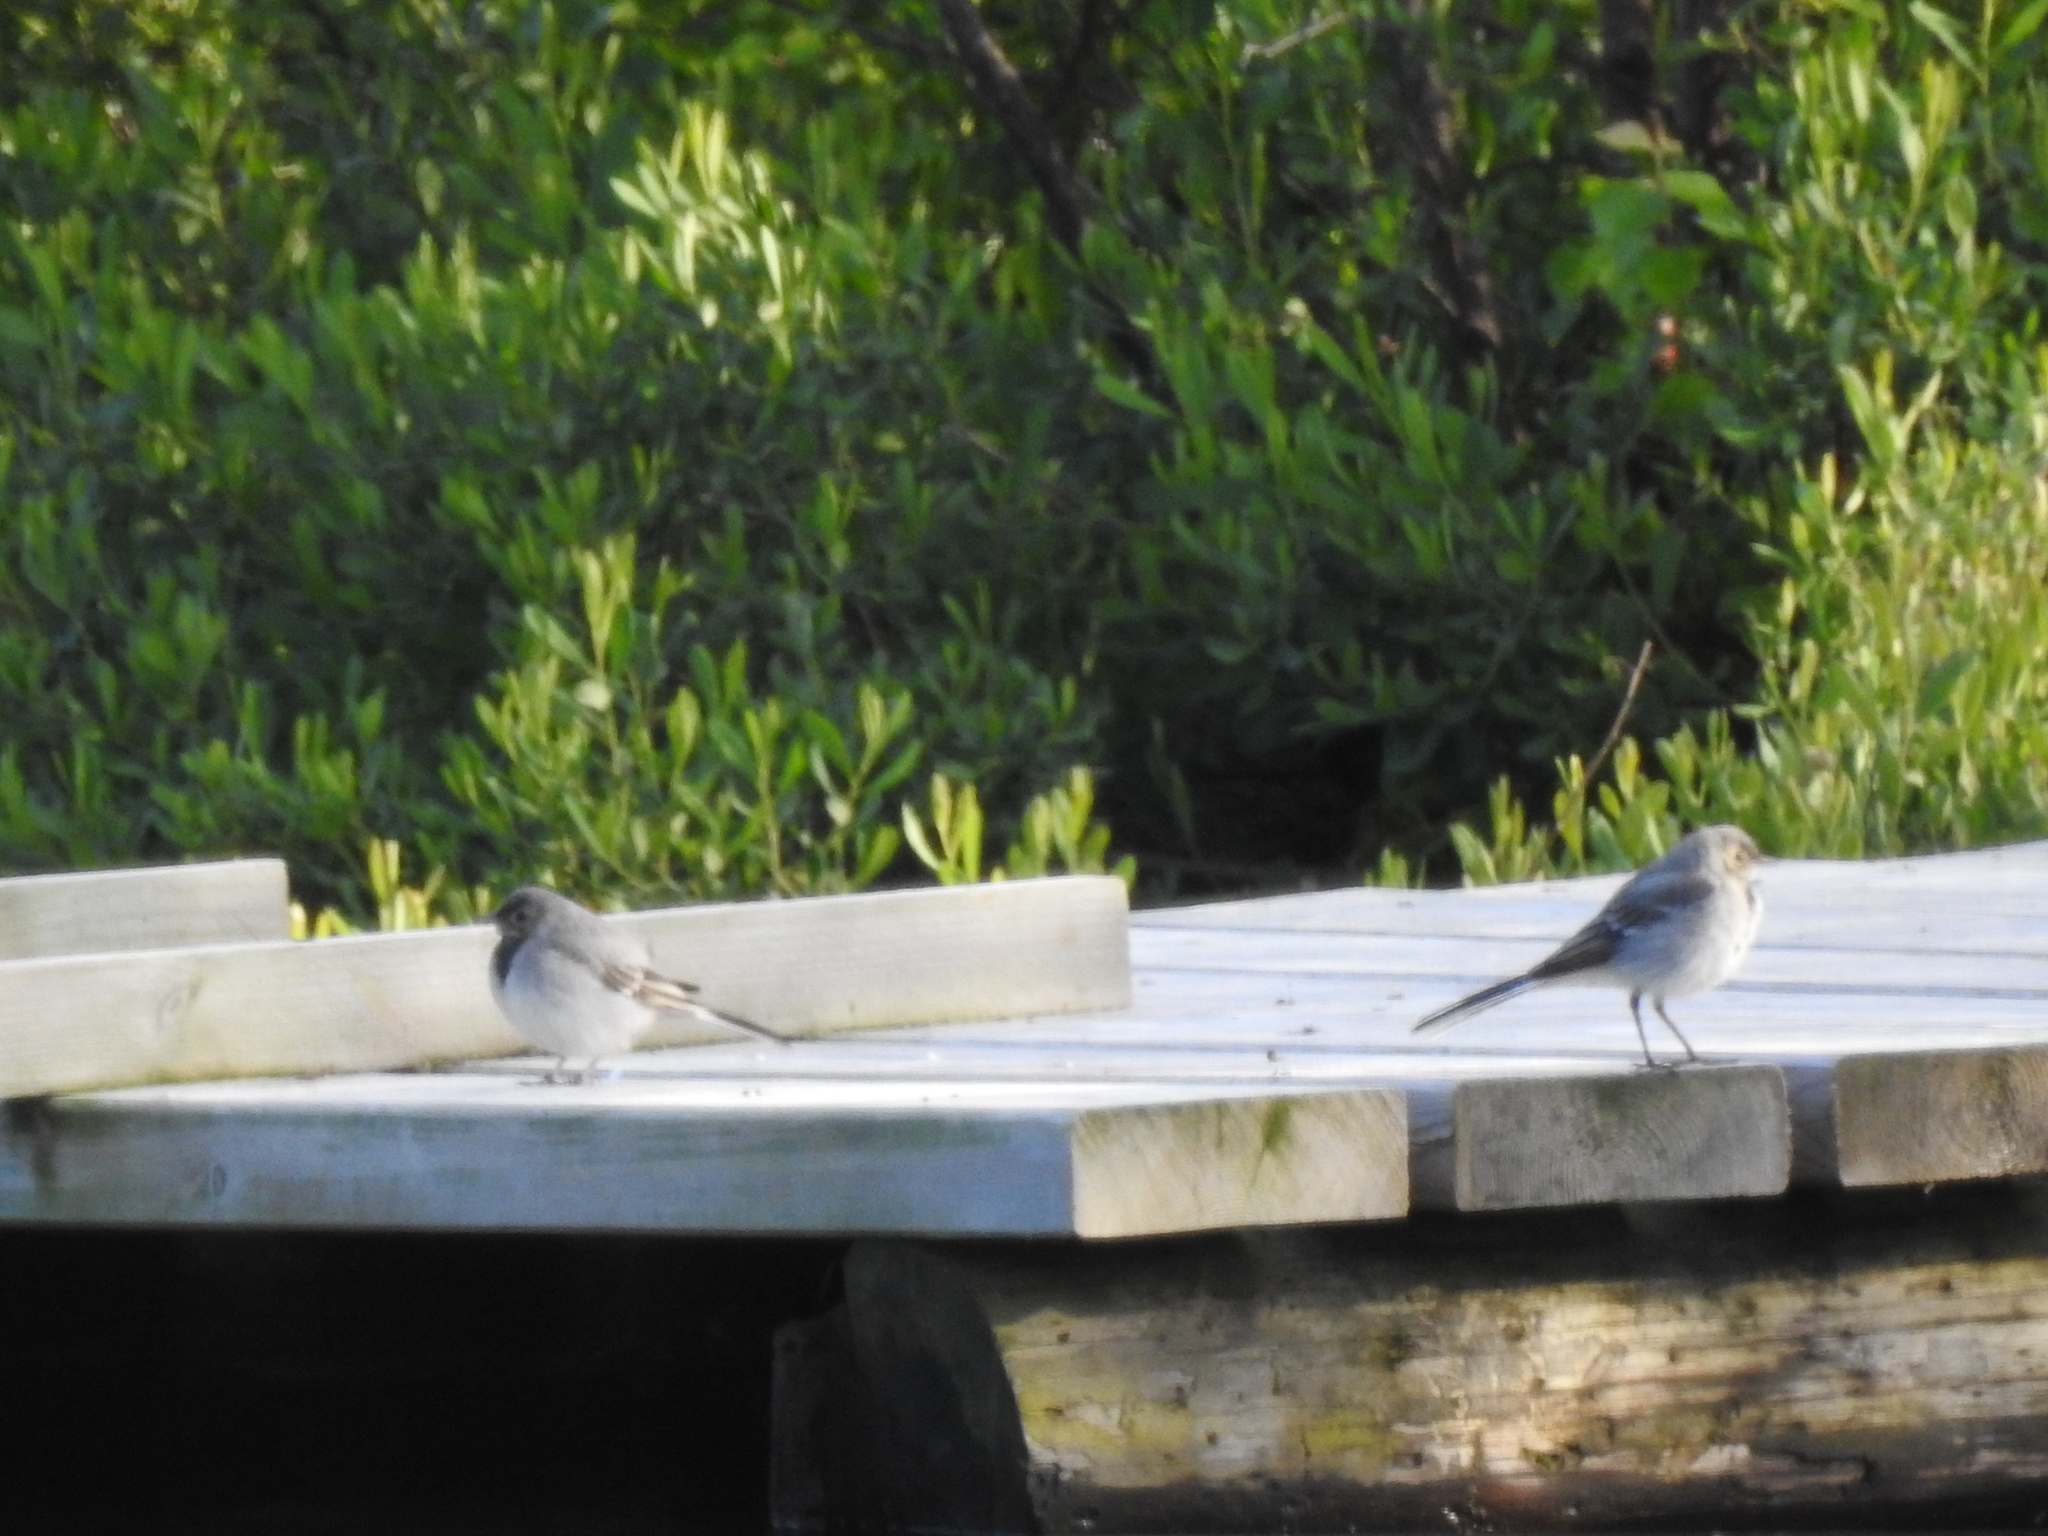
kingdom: Animalia
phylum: Chordata
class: Aves
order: Passeriformes
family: Motacillidae
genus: Motacilla
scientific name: Motacilla alba
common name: White wagtail
